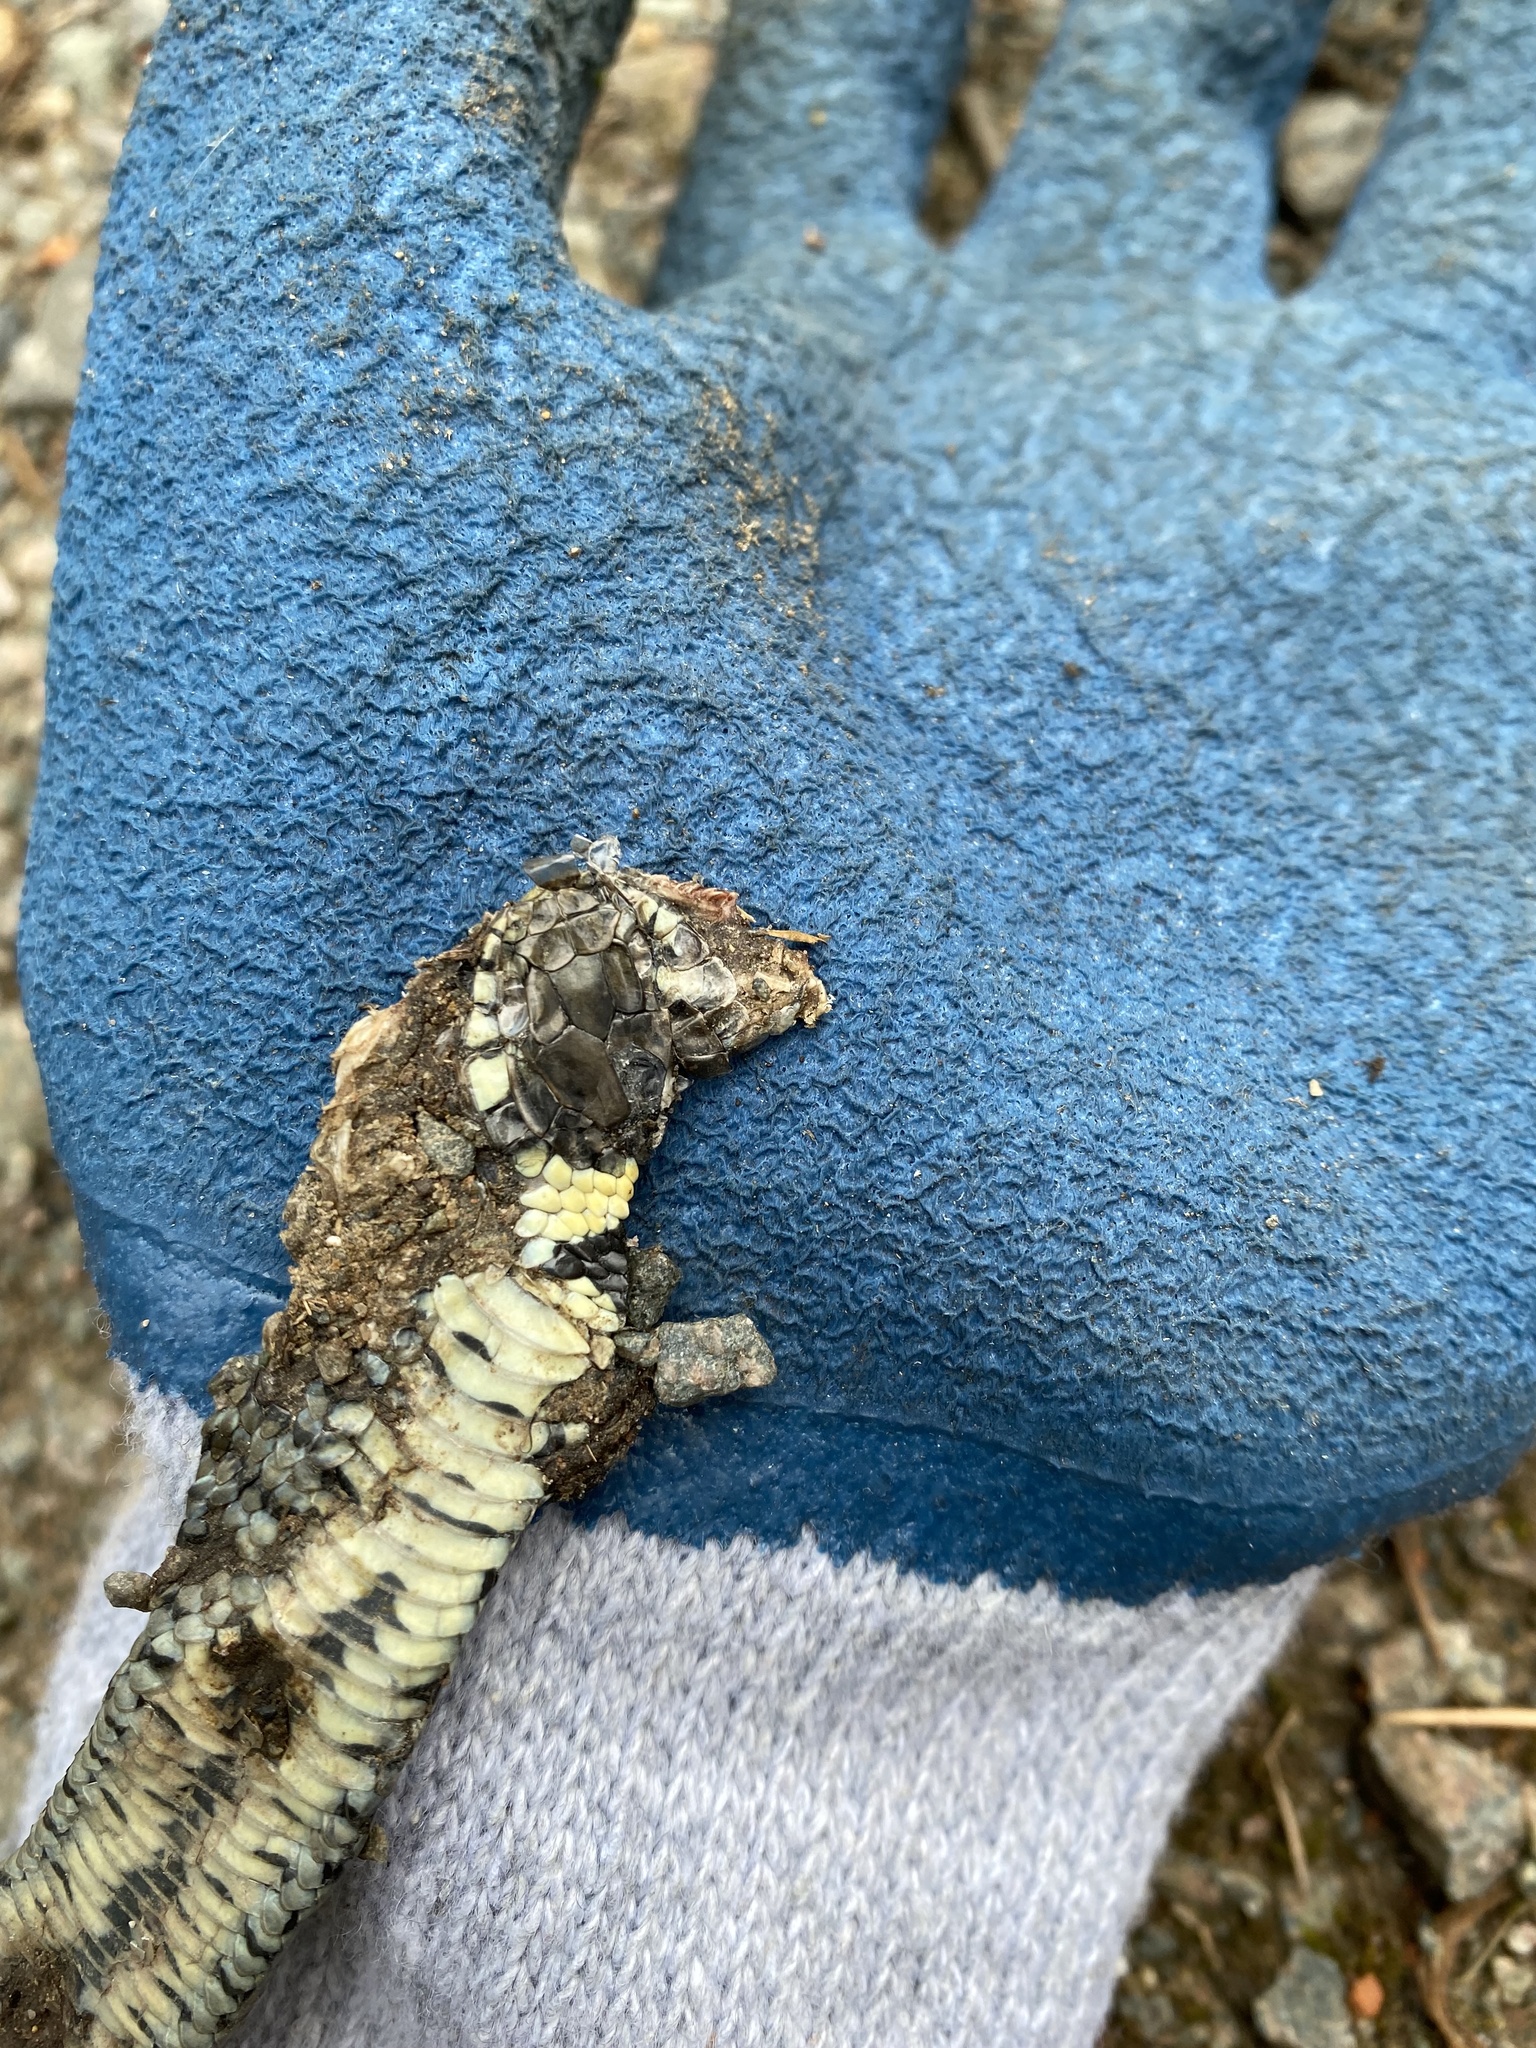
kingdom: Animalia
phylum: Chordata
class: Squamata
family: Colubridae
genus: Natrix
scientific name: Natrix helvetica
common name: Banded grass snake
